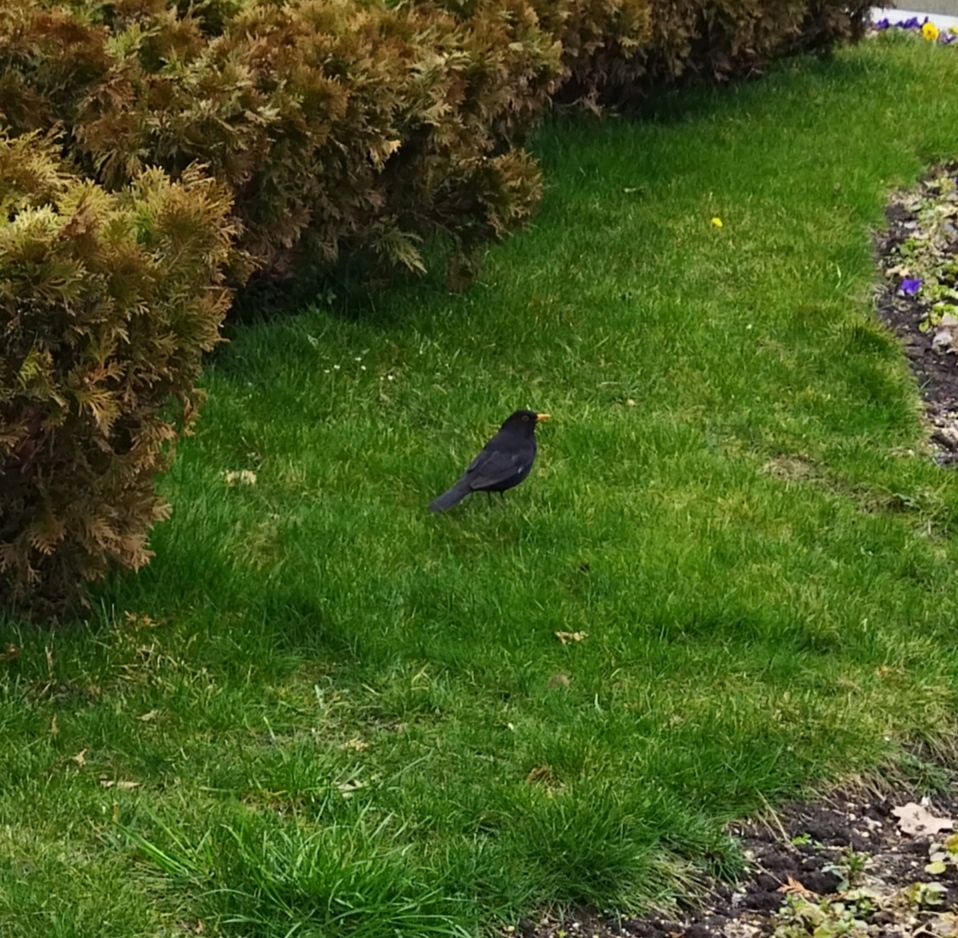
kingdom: Animalia
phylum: Chordata
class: Aves
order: Passeriformes
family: Turdidae
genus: Turdus
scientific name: Turdus merula
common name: Common blackbird
